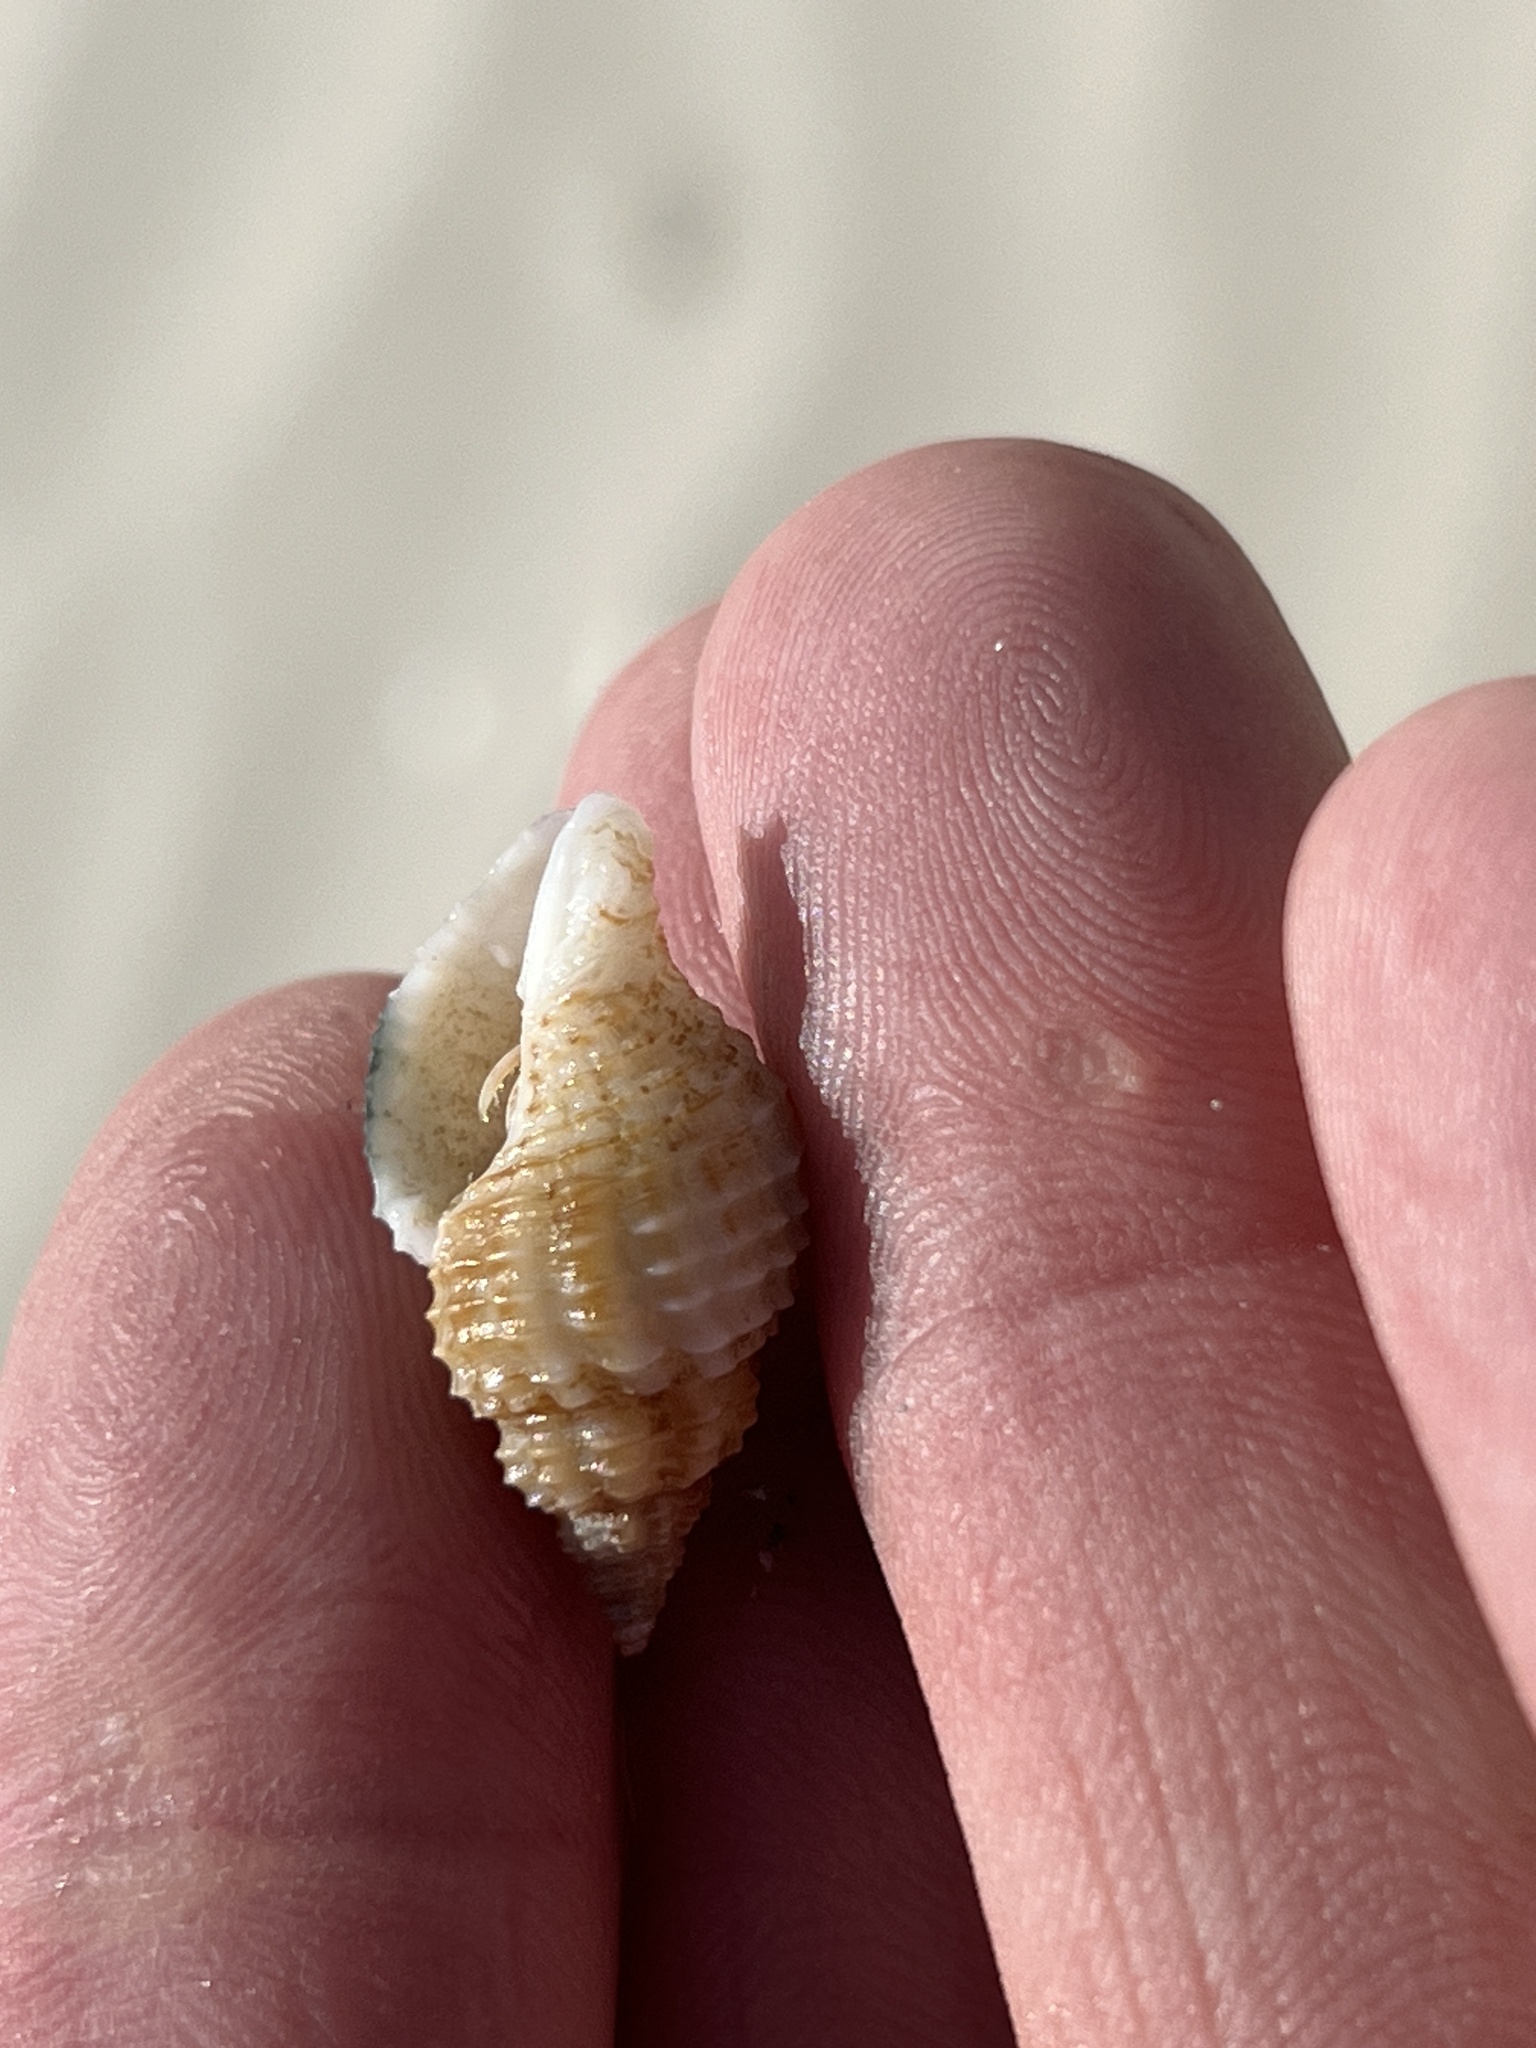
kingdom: Animalia
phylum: Mollusca
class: Gastropoda
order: Neogastropoda
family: Pisaniidae
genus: Solenosteira
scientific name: Solenosteira cancellaria
